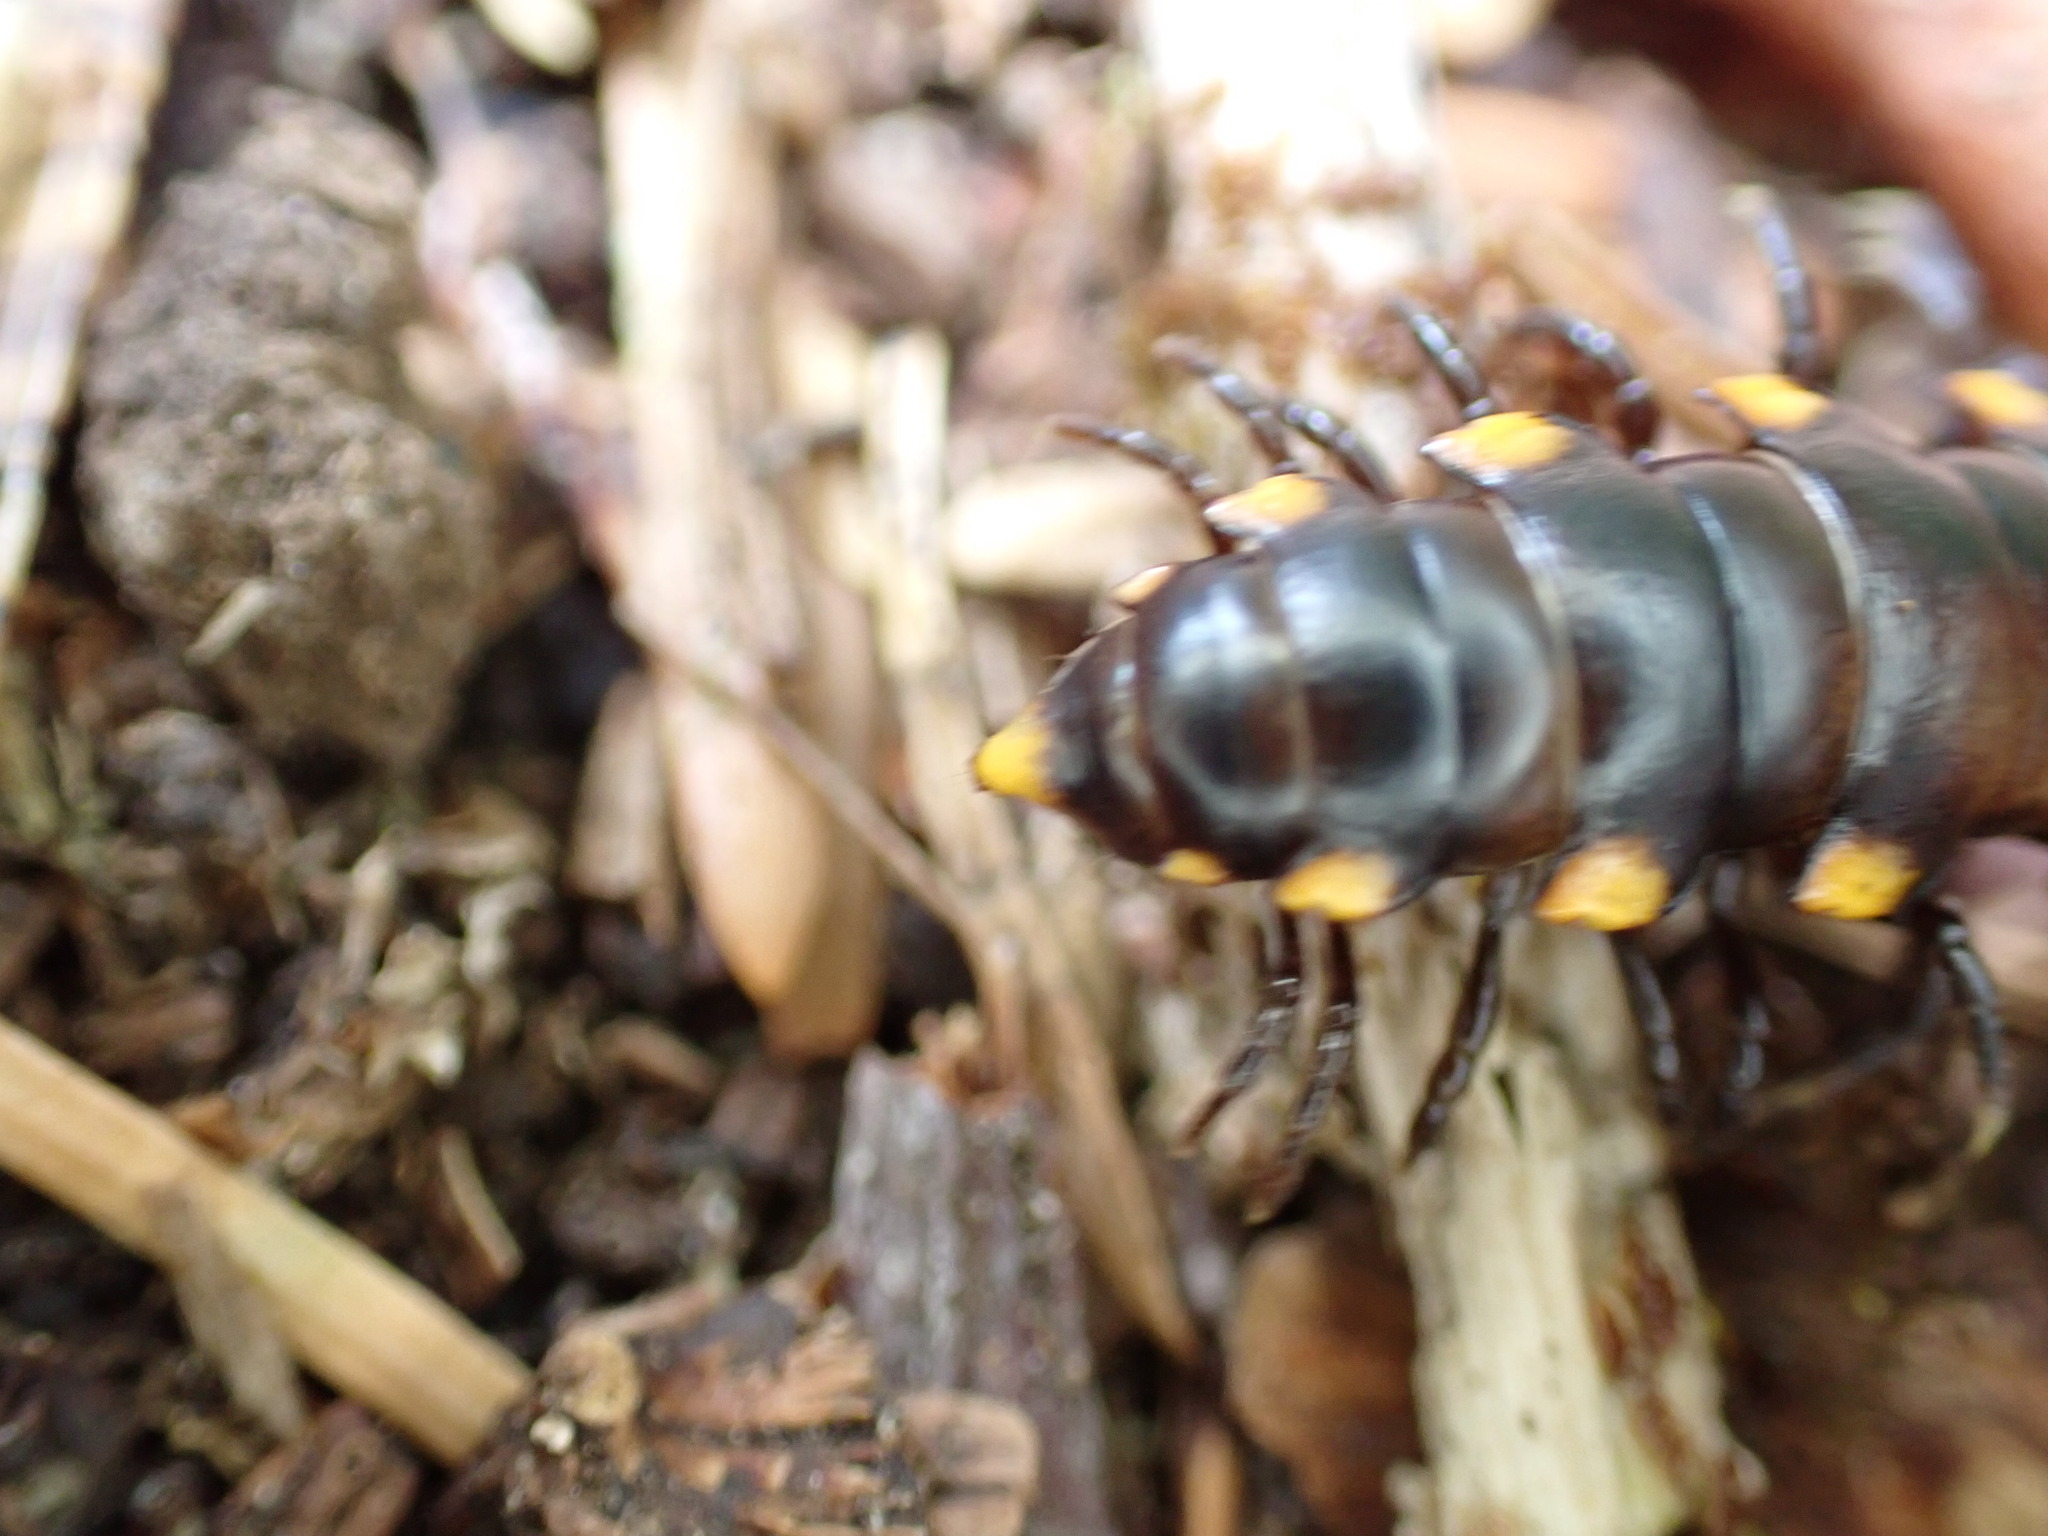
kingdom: Animalia
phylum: Arthropoda
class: Diplopoda
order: Polydesmida
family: Xystodesmidae
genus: Harpaphe
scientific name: Harpaphe haydeniana
